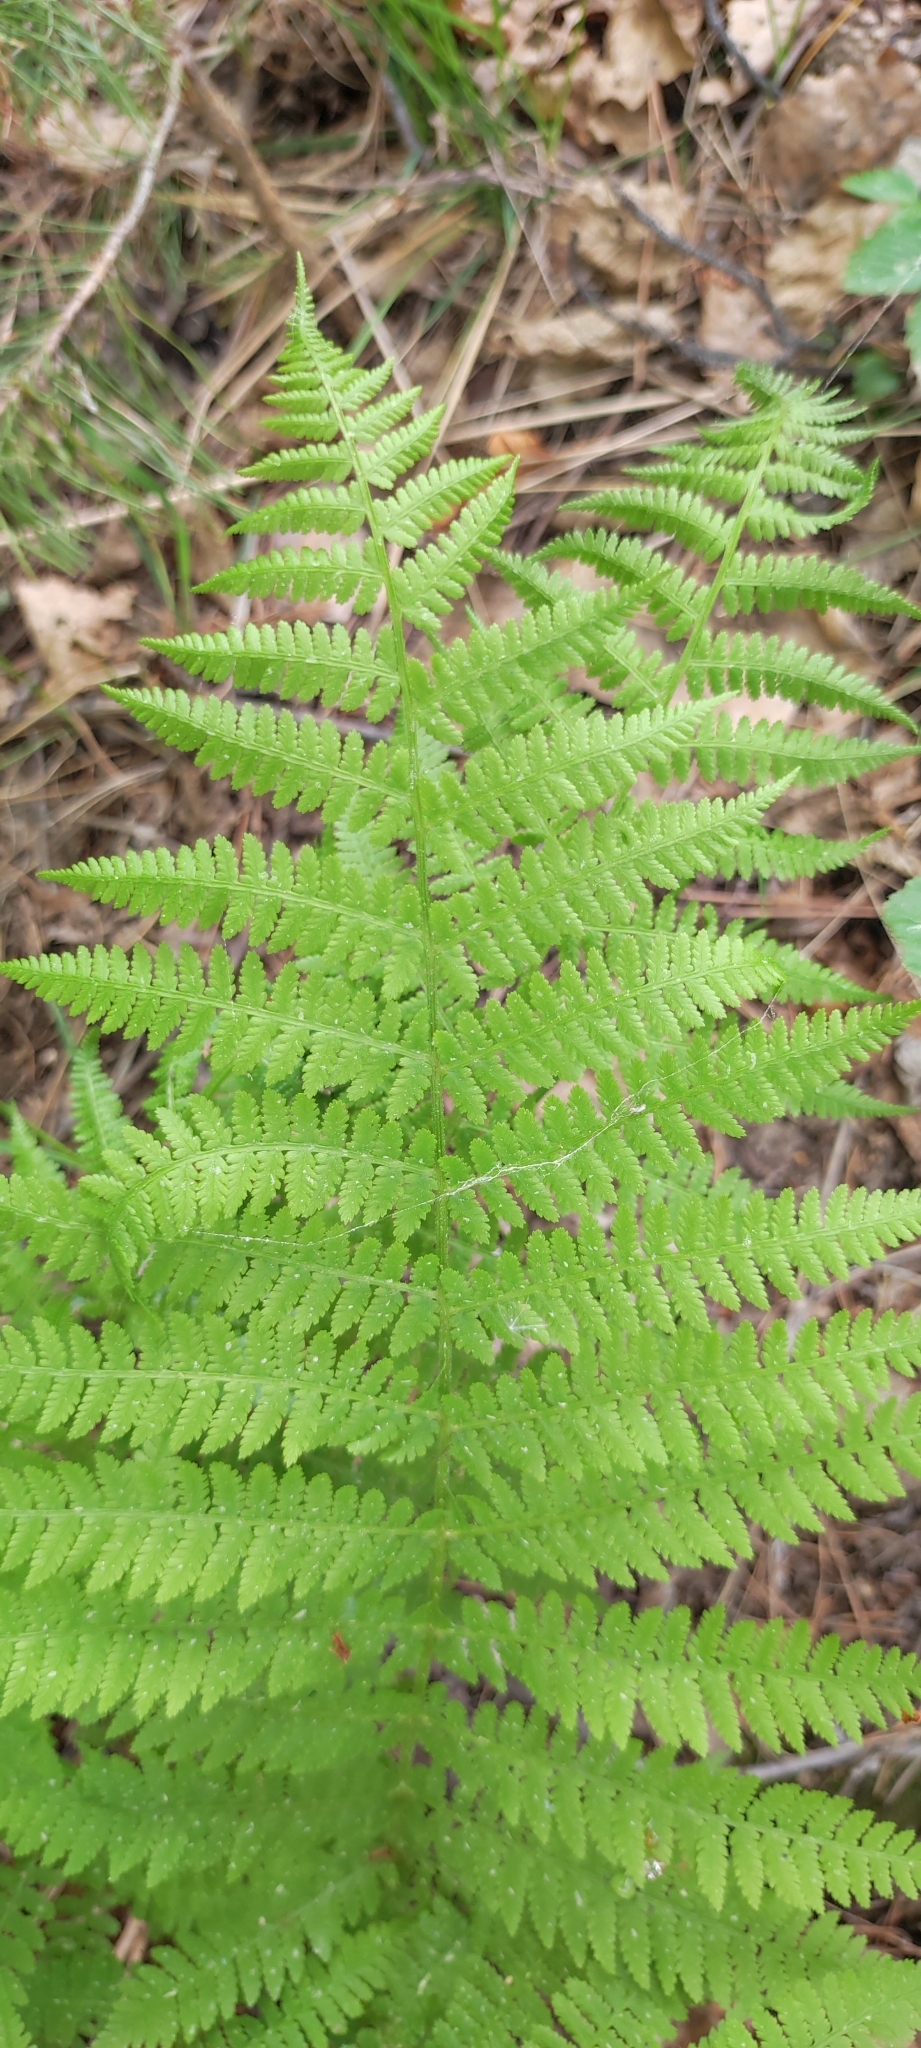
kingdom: Plantae
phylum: Tracheophyta
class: Polypodiopsida
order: Polypodiales
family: Athyriaceae
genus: Athyrium
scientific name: Athyrium filix-femina
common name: Lady fern
